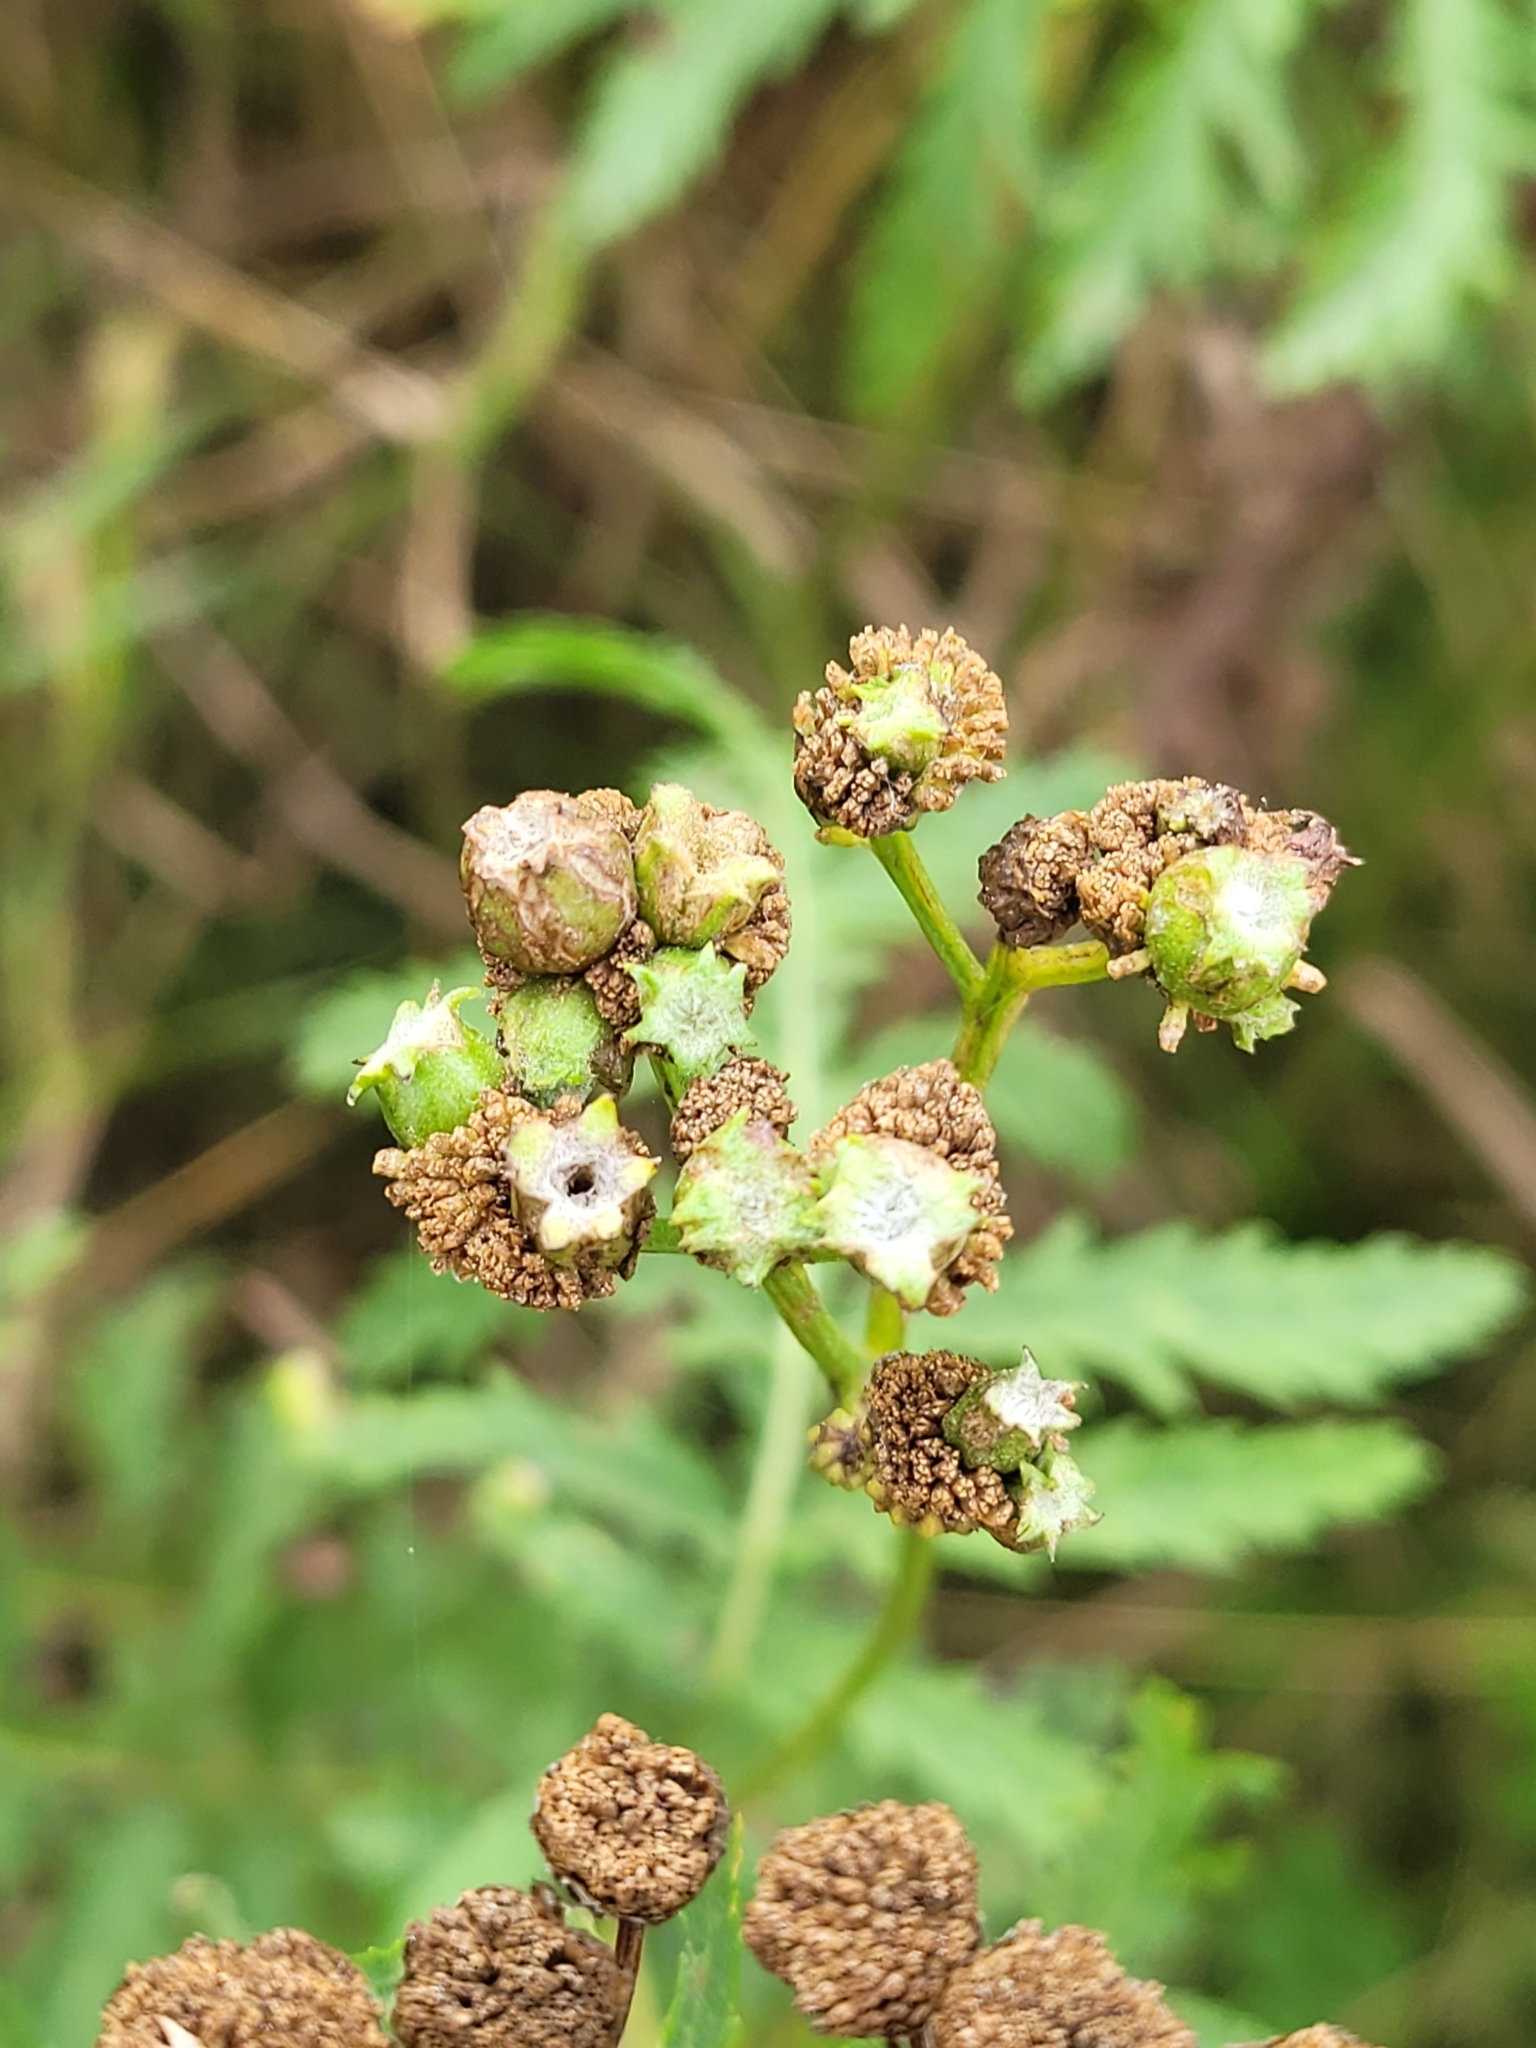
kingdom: Animalia
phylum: Arthropoda
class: Insecta
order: Diptera
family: Cecidomyiidae
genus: Rhopalomyia
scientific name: Rhopalomyia tanaceticolus
